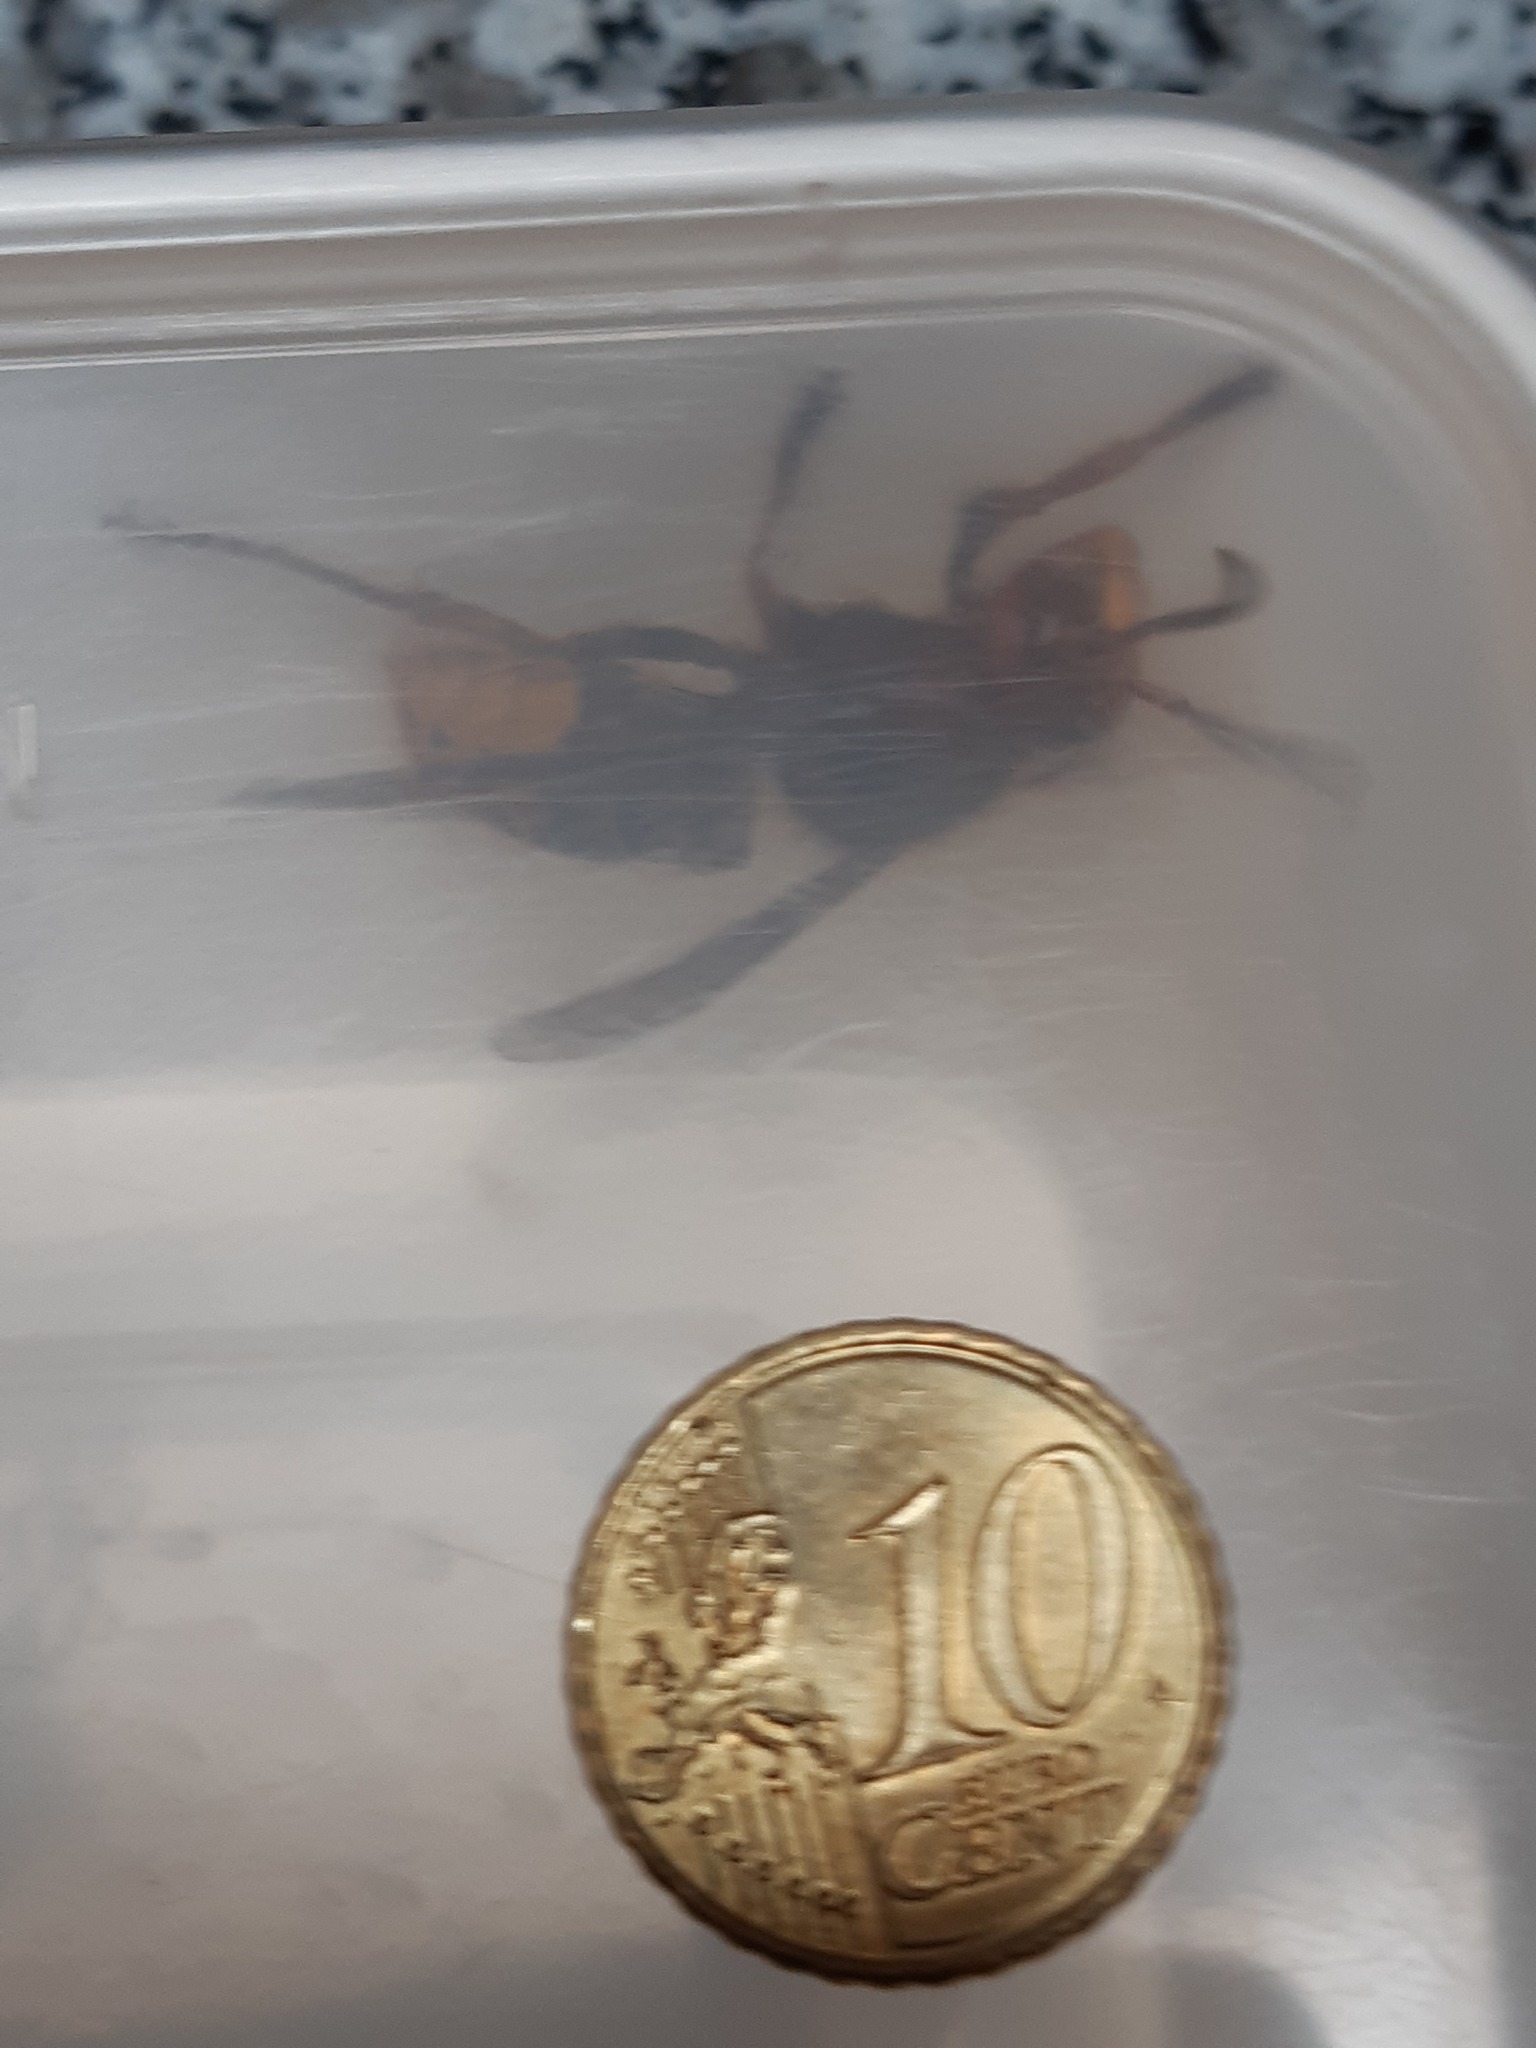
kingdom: Animalia
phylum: Arthropoda
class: Insecta
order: Hymenoptera
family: Vespidae
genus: Vespa
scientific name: Vespa crabro
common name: Hornet
